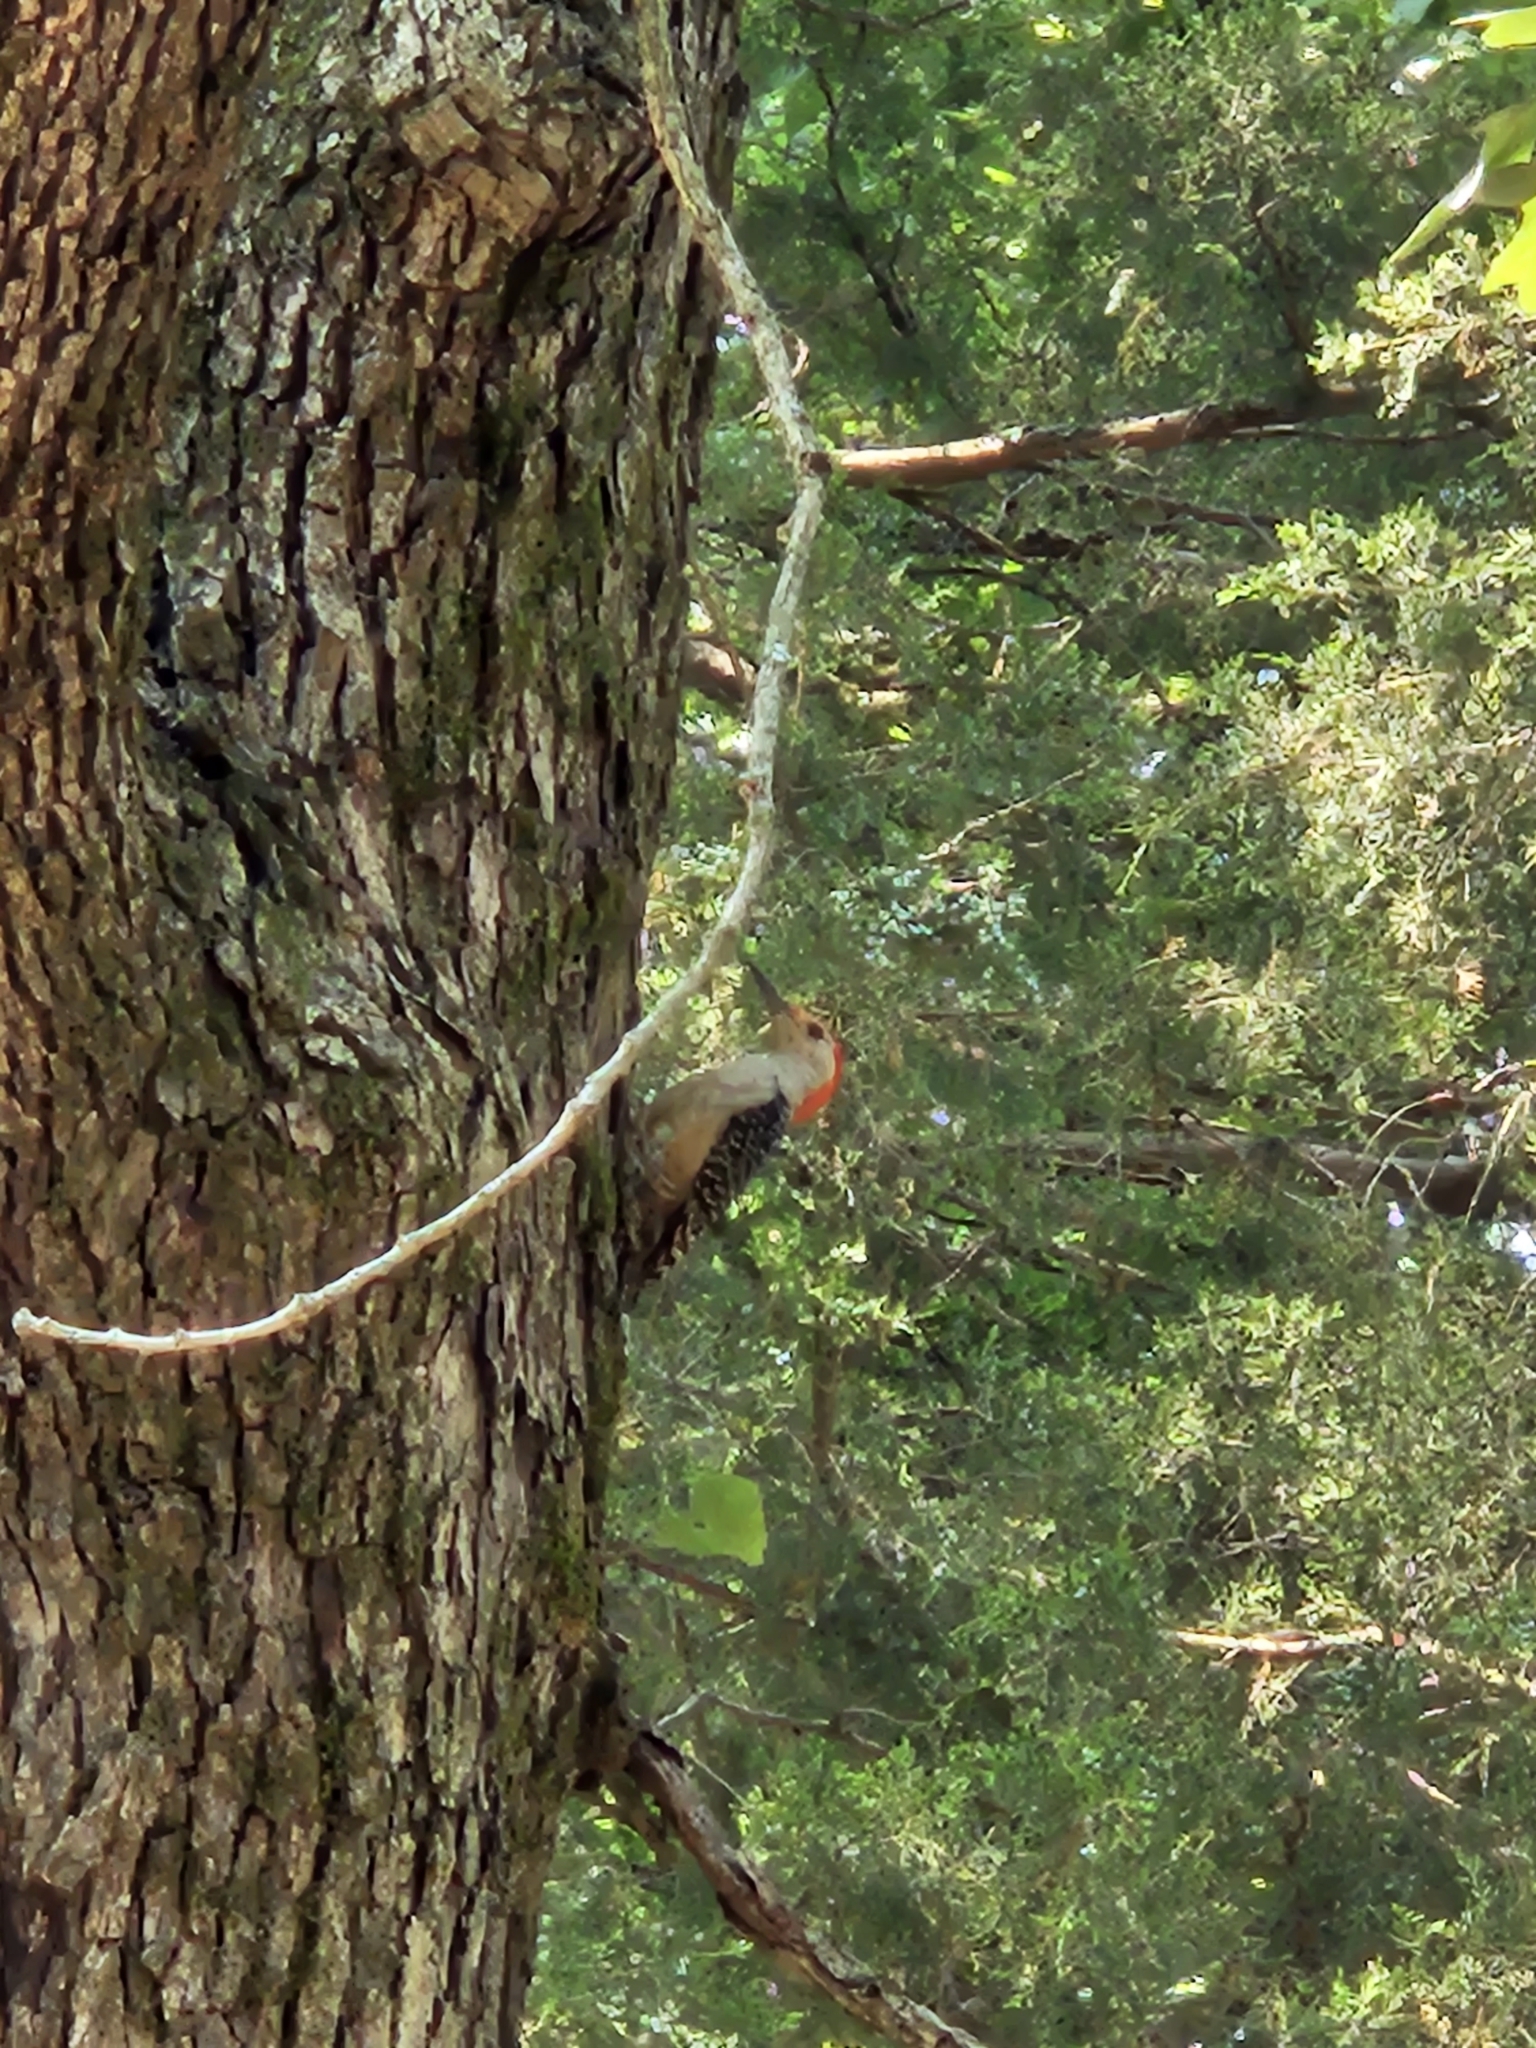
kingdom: Animalia
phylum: Chordata
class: Aves
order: Piciformes
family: Picidae
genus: Melanerpes
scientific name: Melanerpes carolinus
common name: Red-bellied woodpecker
